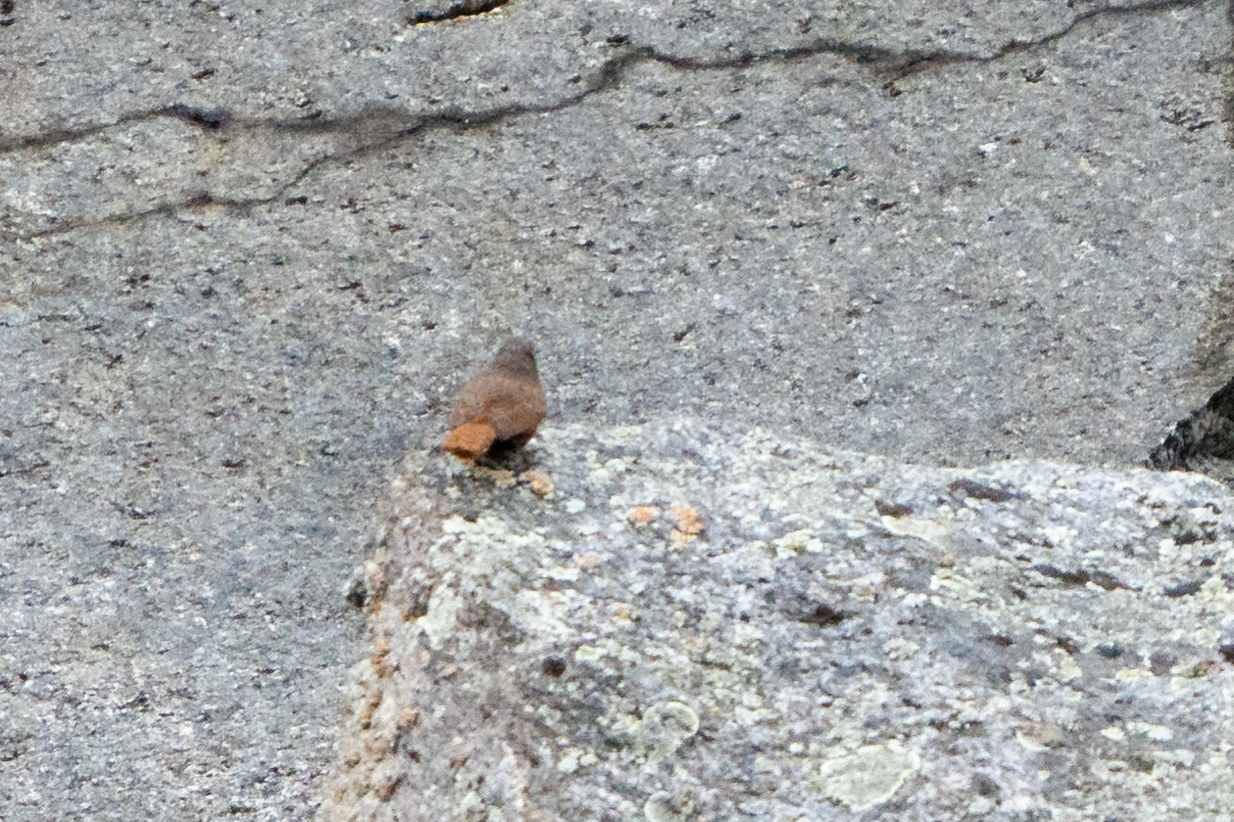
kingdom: Animalia
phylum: Chordata
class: Aves
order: Passeriformes
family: Troglodytidae
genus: Catherpes
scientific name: Catherpes mexicanus
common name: Canyon wren
